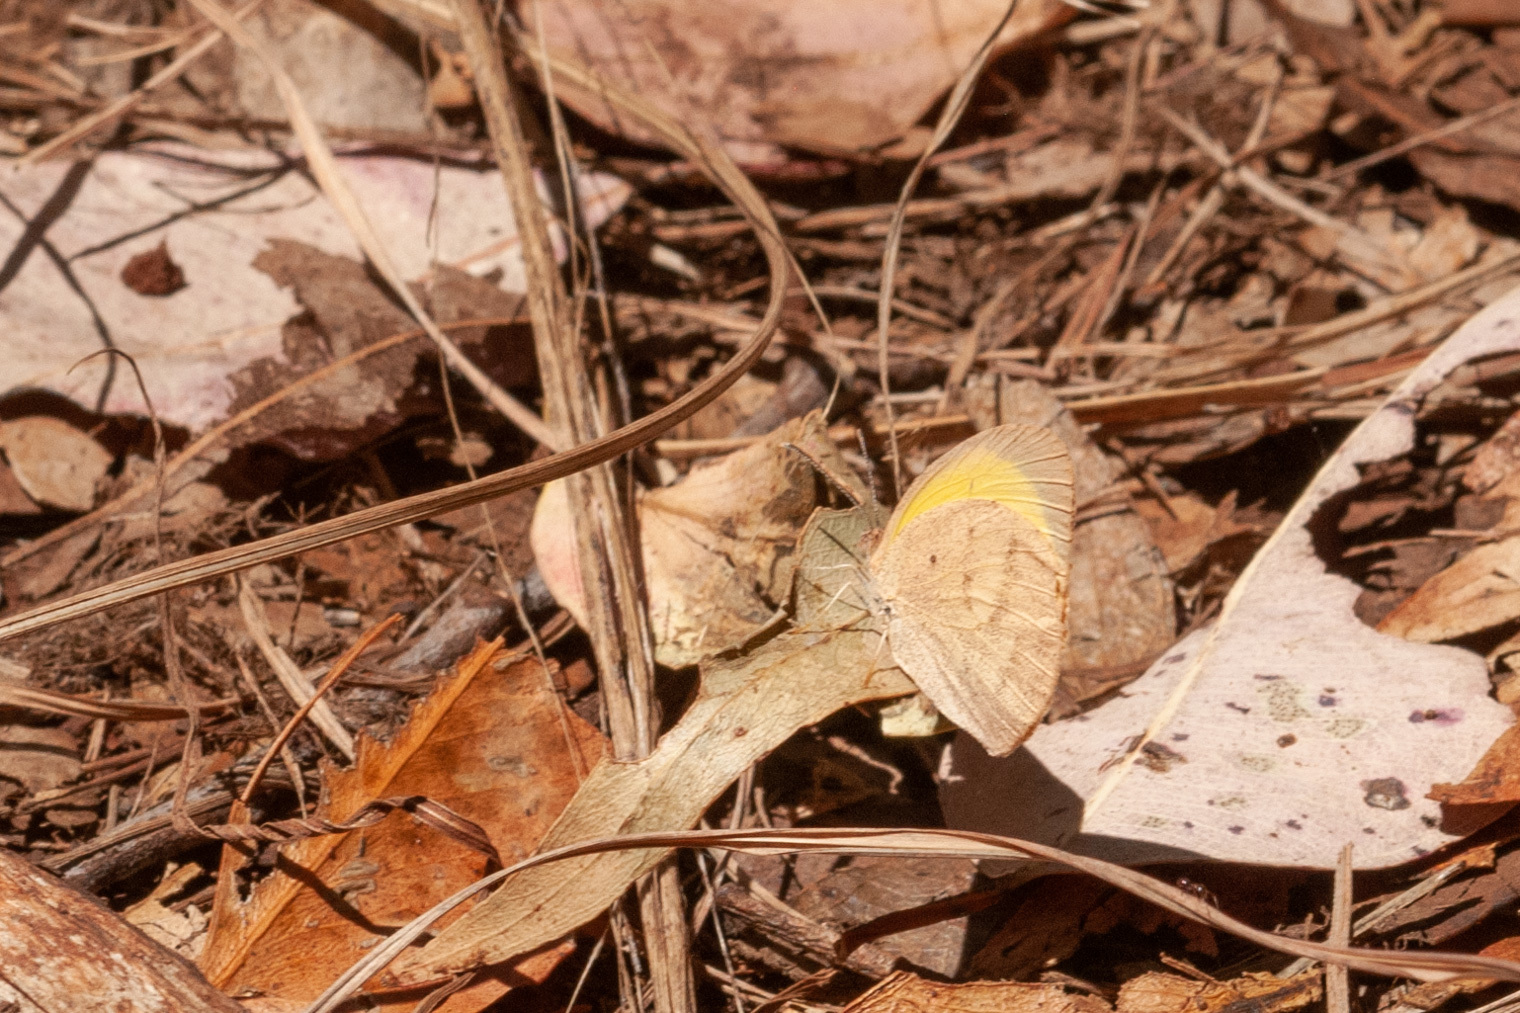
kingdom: Animalia
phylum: Arthropoda
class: Insecta
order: Lepidoptera
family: Pieridae
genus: Eurema
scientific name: Eurema herla
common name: Macleay's grass yellow
